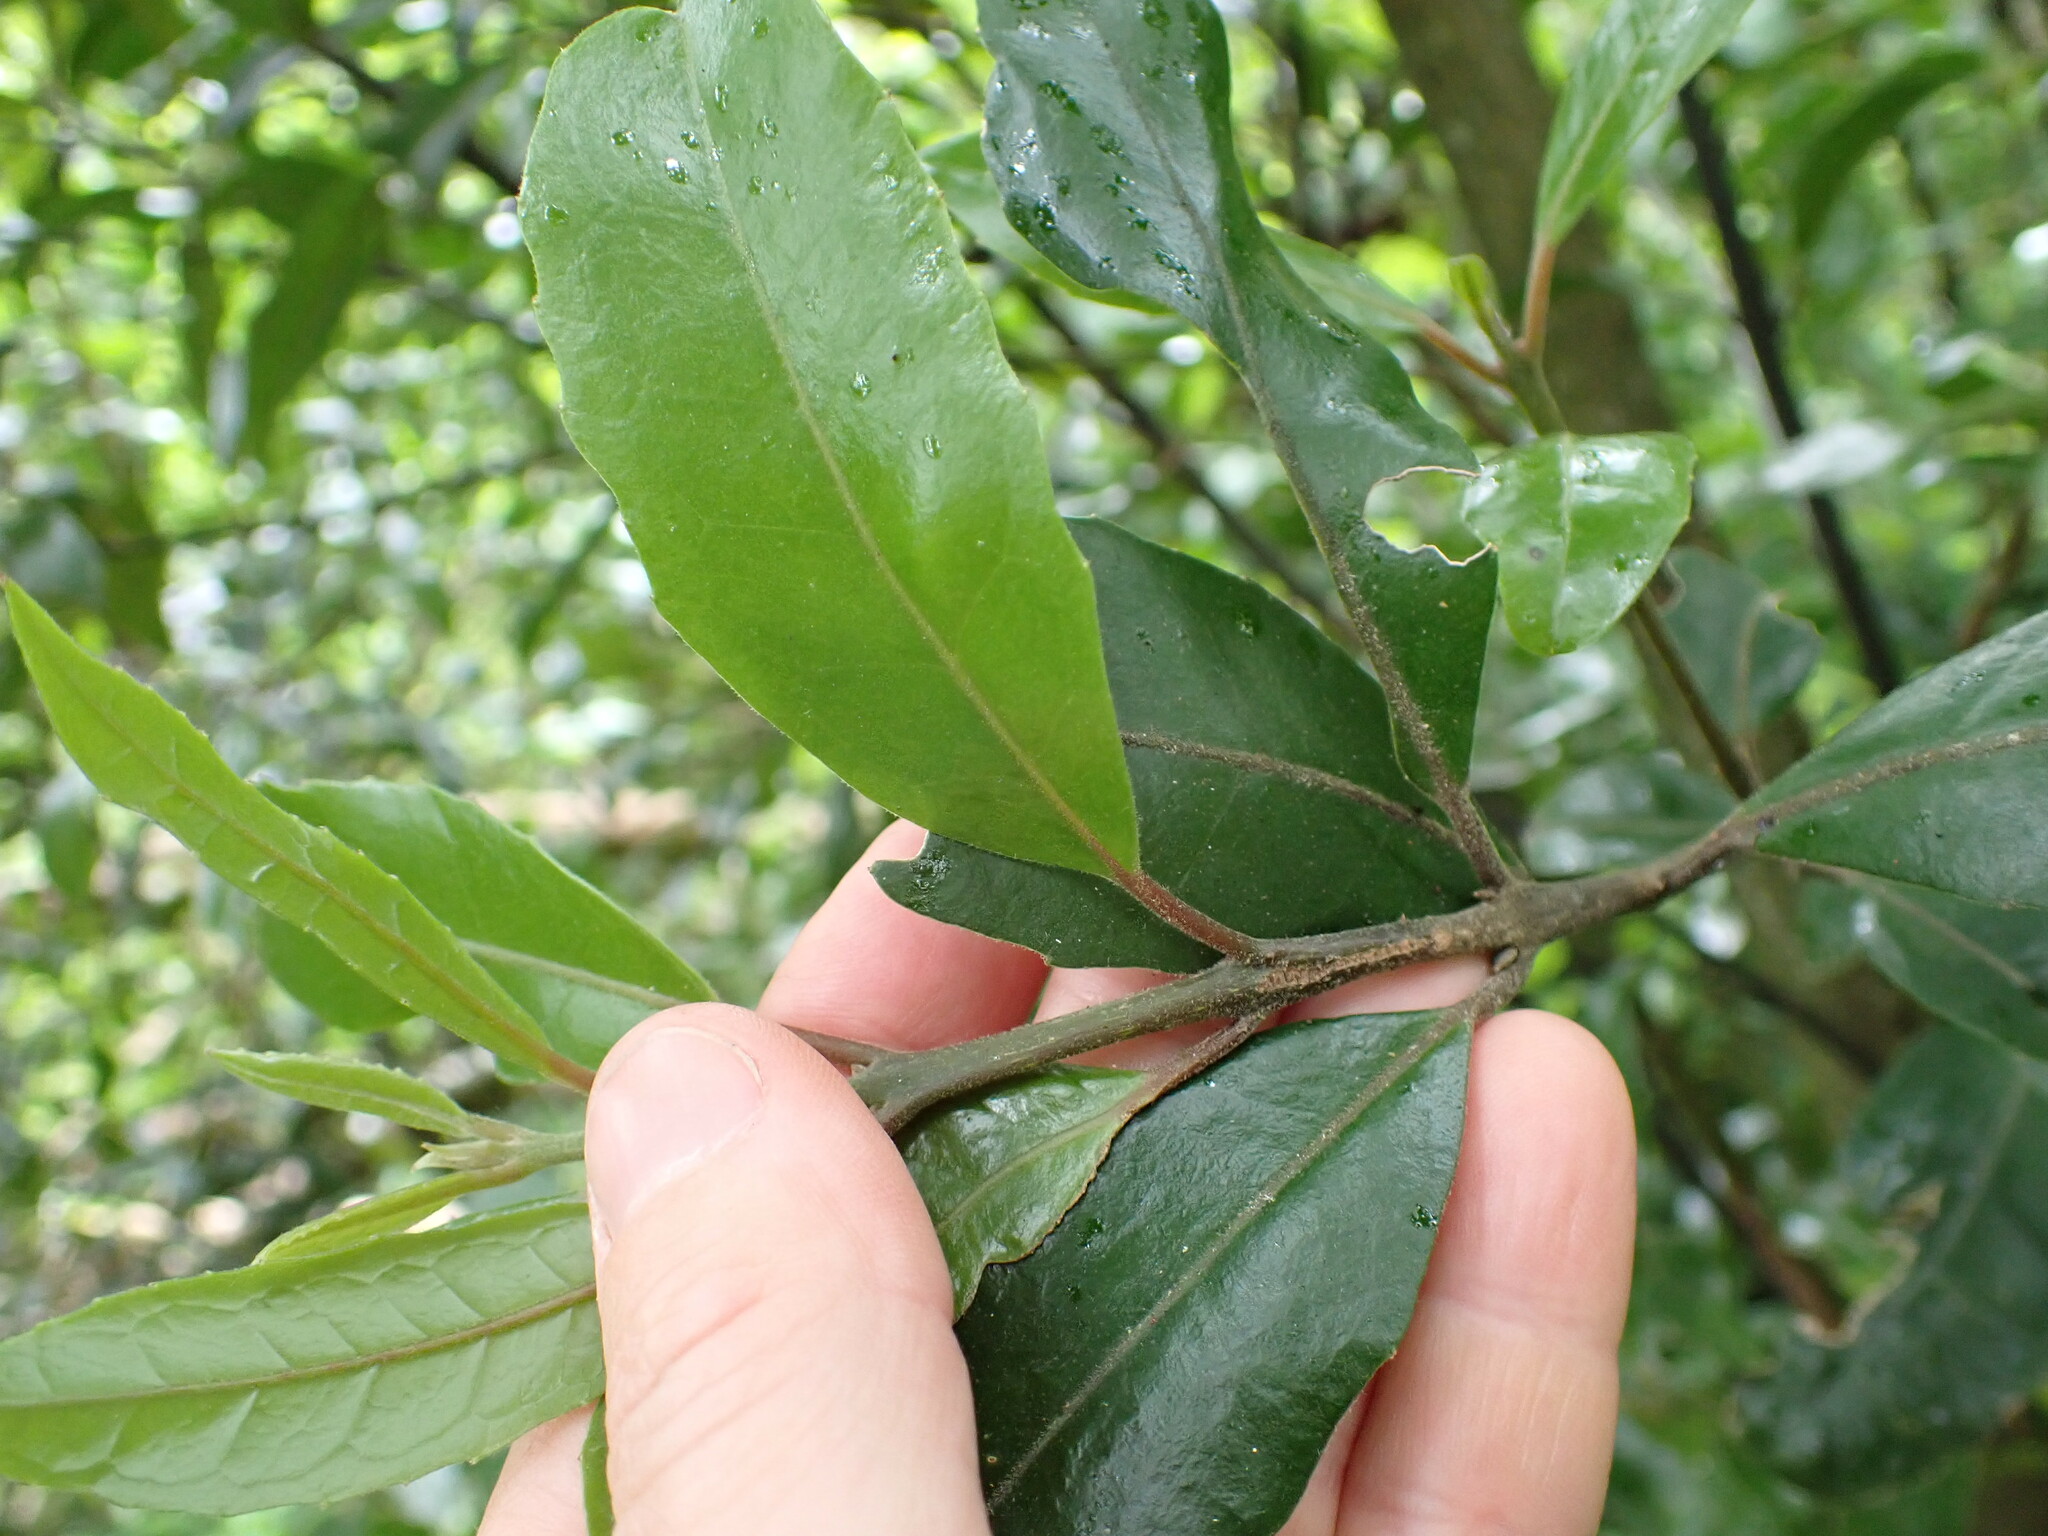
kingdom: Plantae
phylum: Tracheophyta
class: Magnoliopsida
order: Laurales
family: Monimiaceae
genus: Hedycarya
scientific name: Hedycarya arborea
